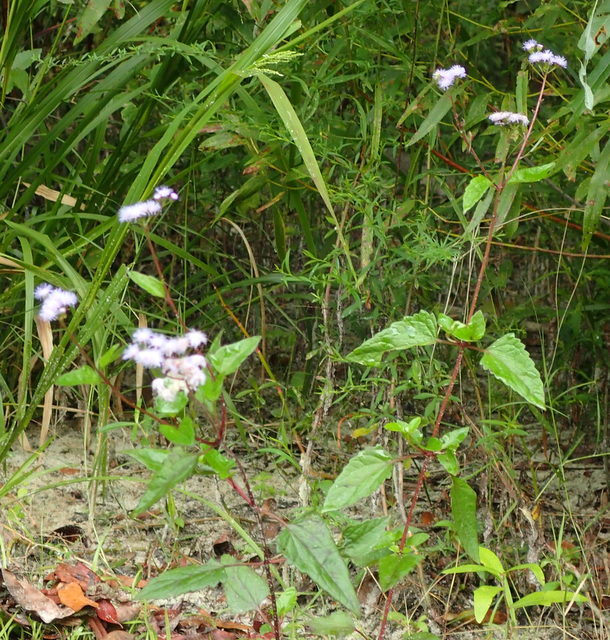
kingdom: Plantae
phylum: Tracheophyta
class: Magnoliopsida
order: Asterales
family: Asteraceae
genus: Conoclinium
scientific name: Conoclinium coelestinum
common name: Blue mistflower
